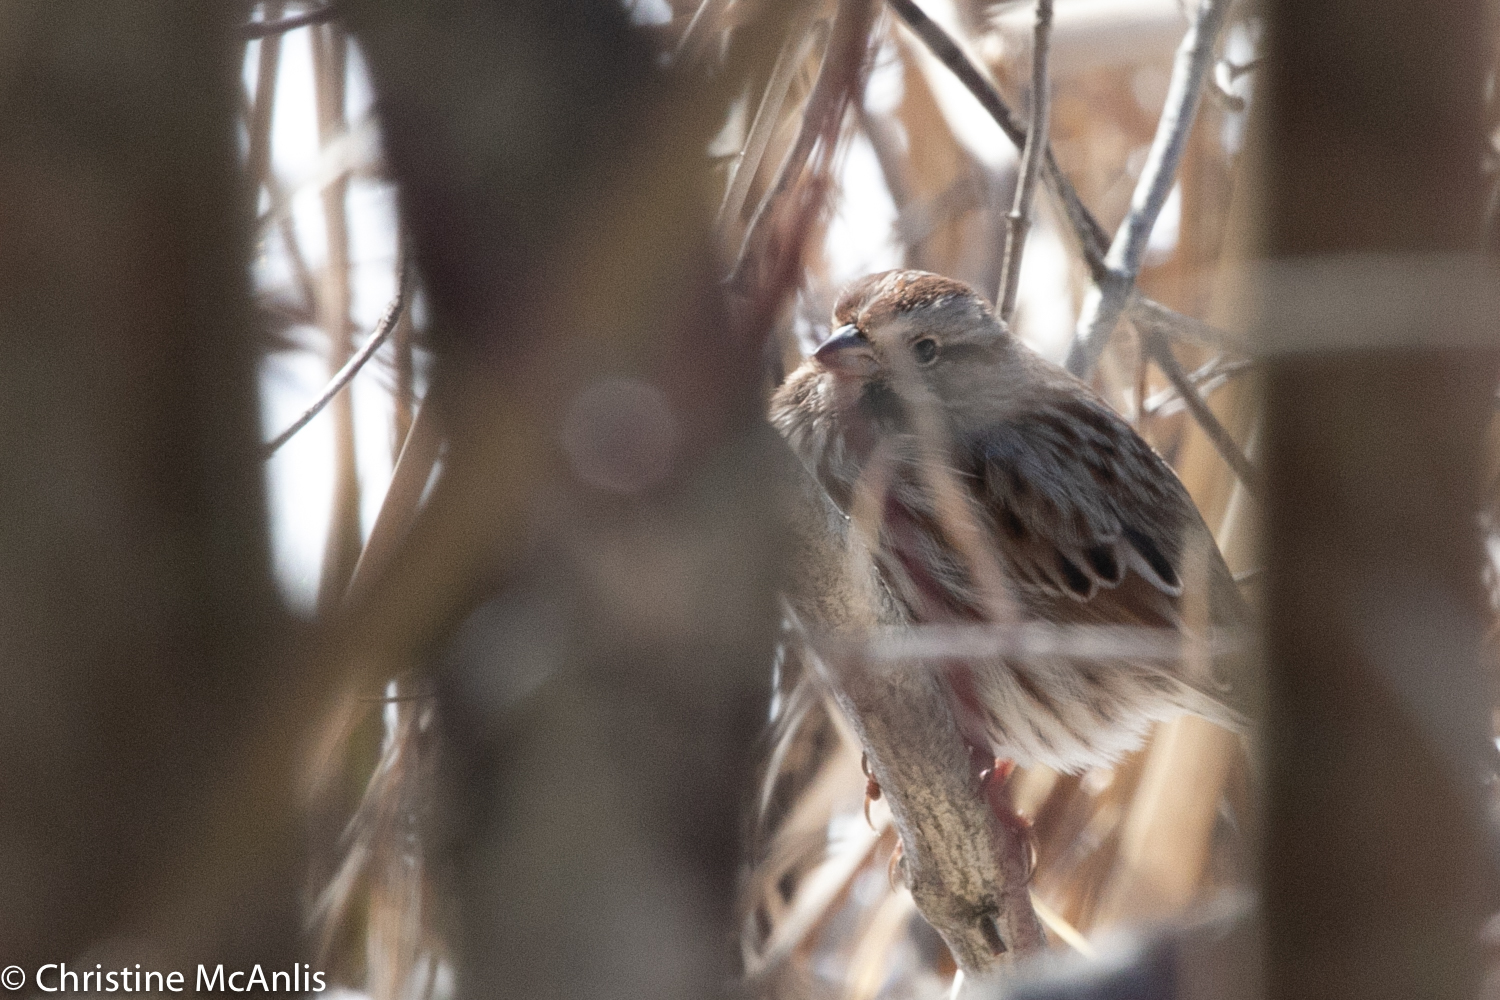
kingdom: Animalia
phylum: Chordata
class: Aves
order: Passeriformes
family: Passerellidae
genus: Melospiza
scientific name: Melospiza melodia
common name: Song sparrow
